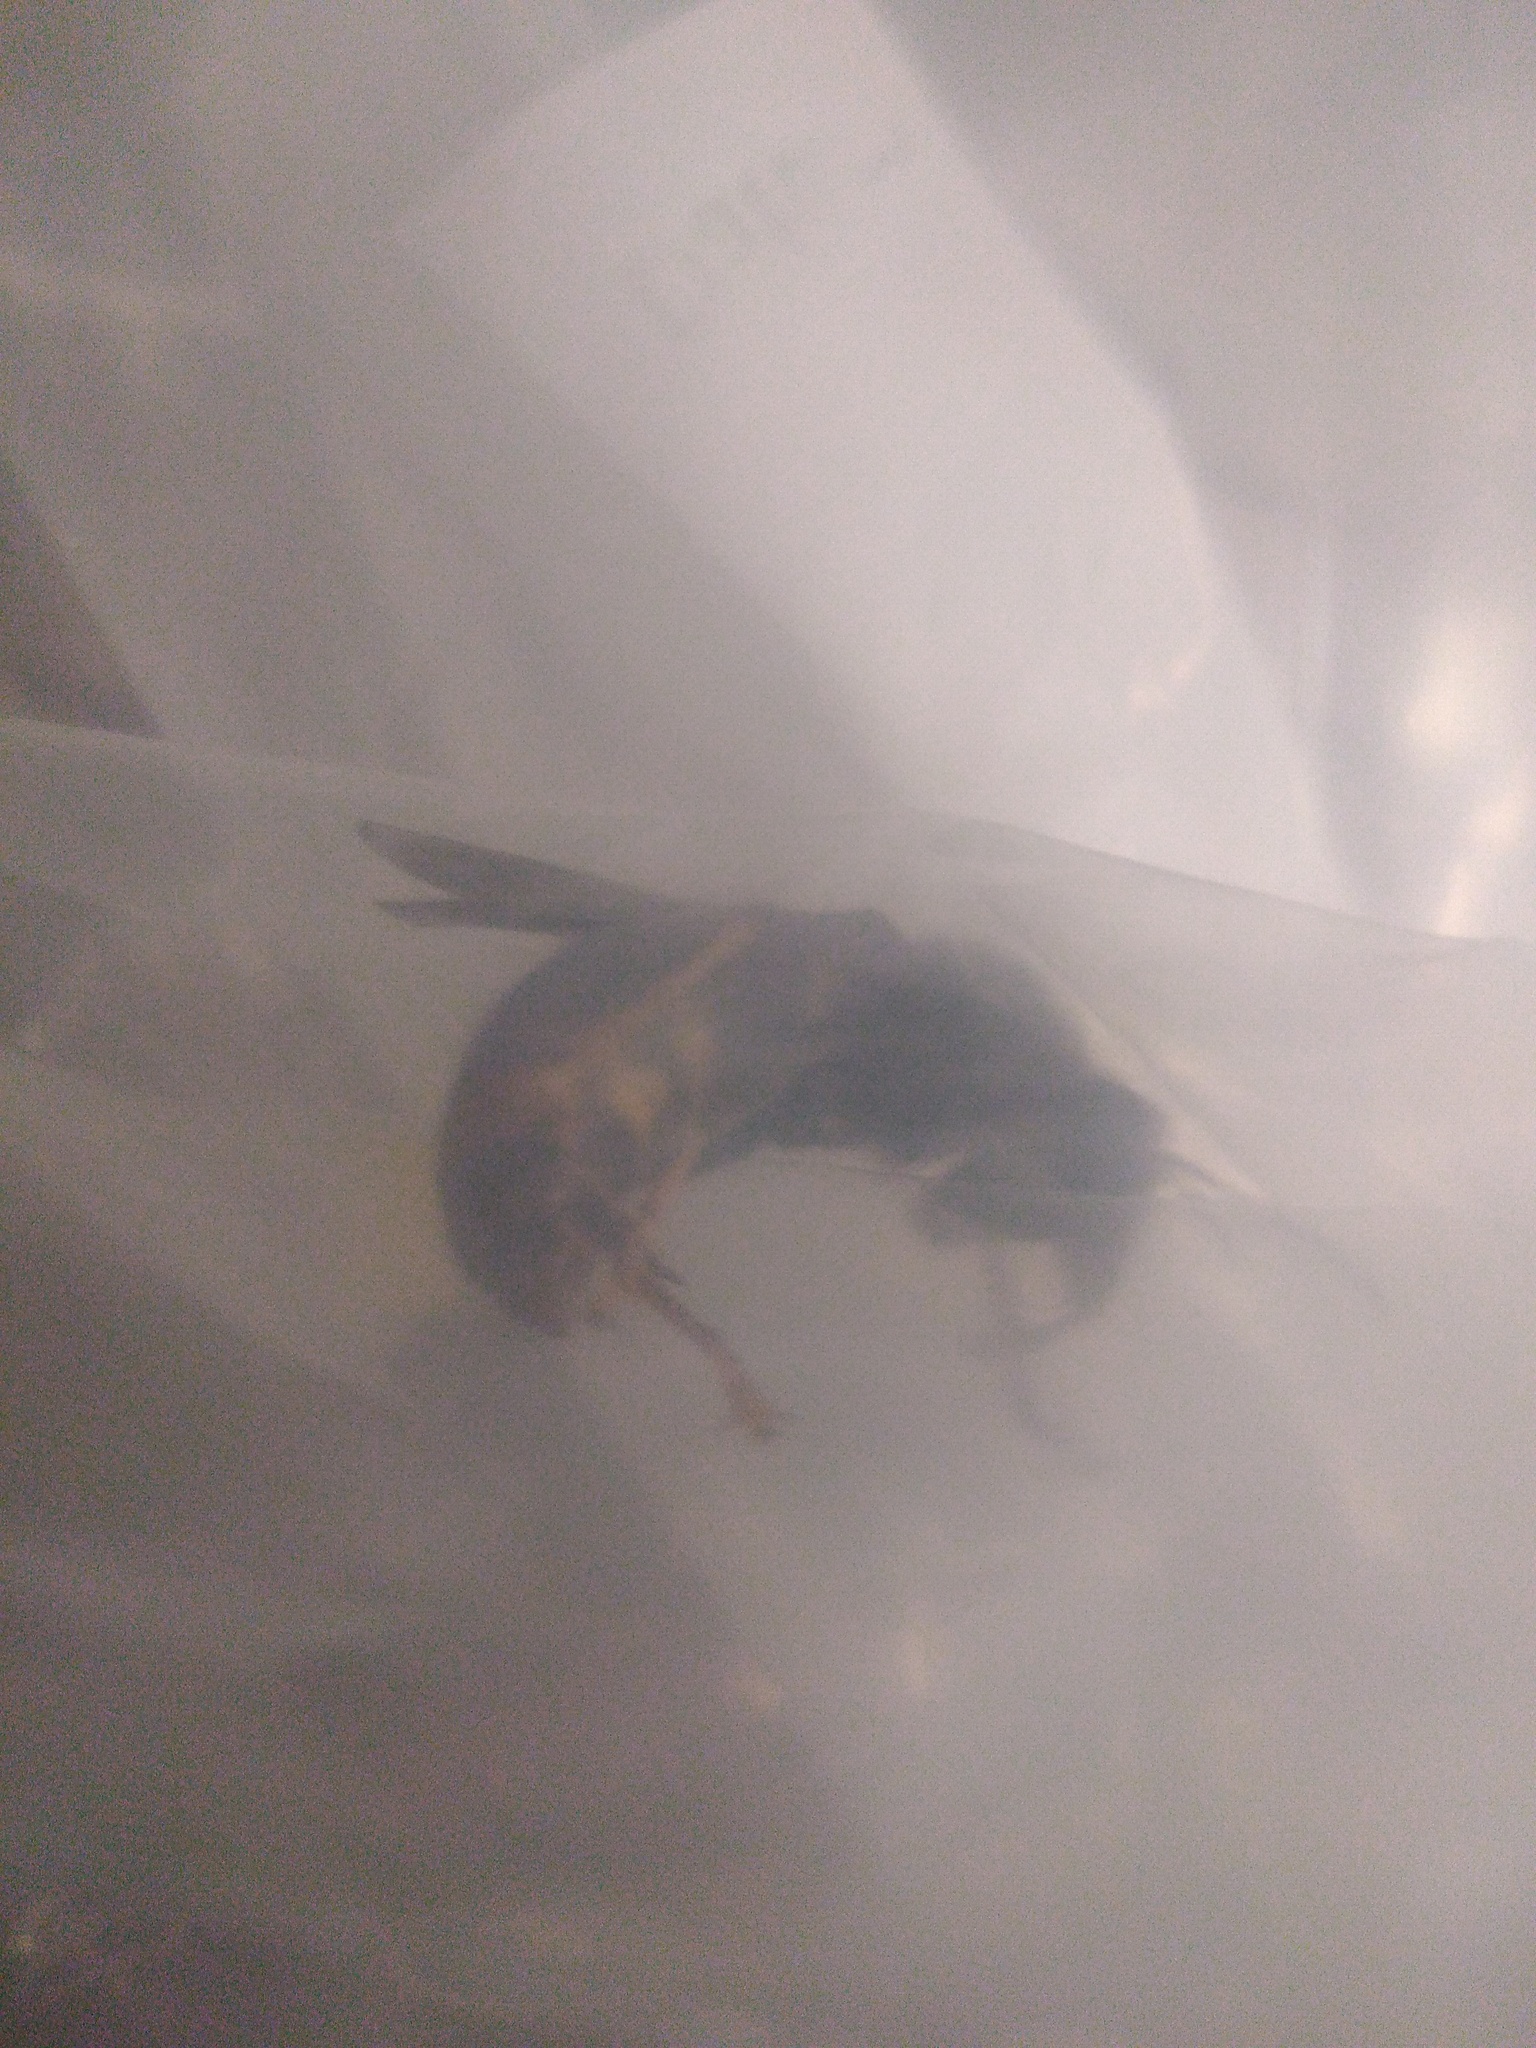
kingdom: Animalia
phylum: Arthropoda
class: Insecta
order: Hymenoptera
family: Vespidae
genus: Vespa
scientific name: Vespa velutina
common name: Asian hornet
